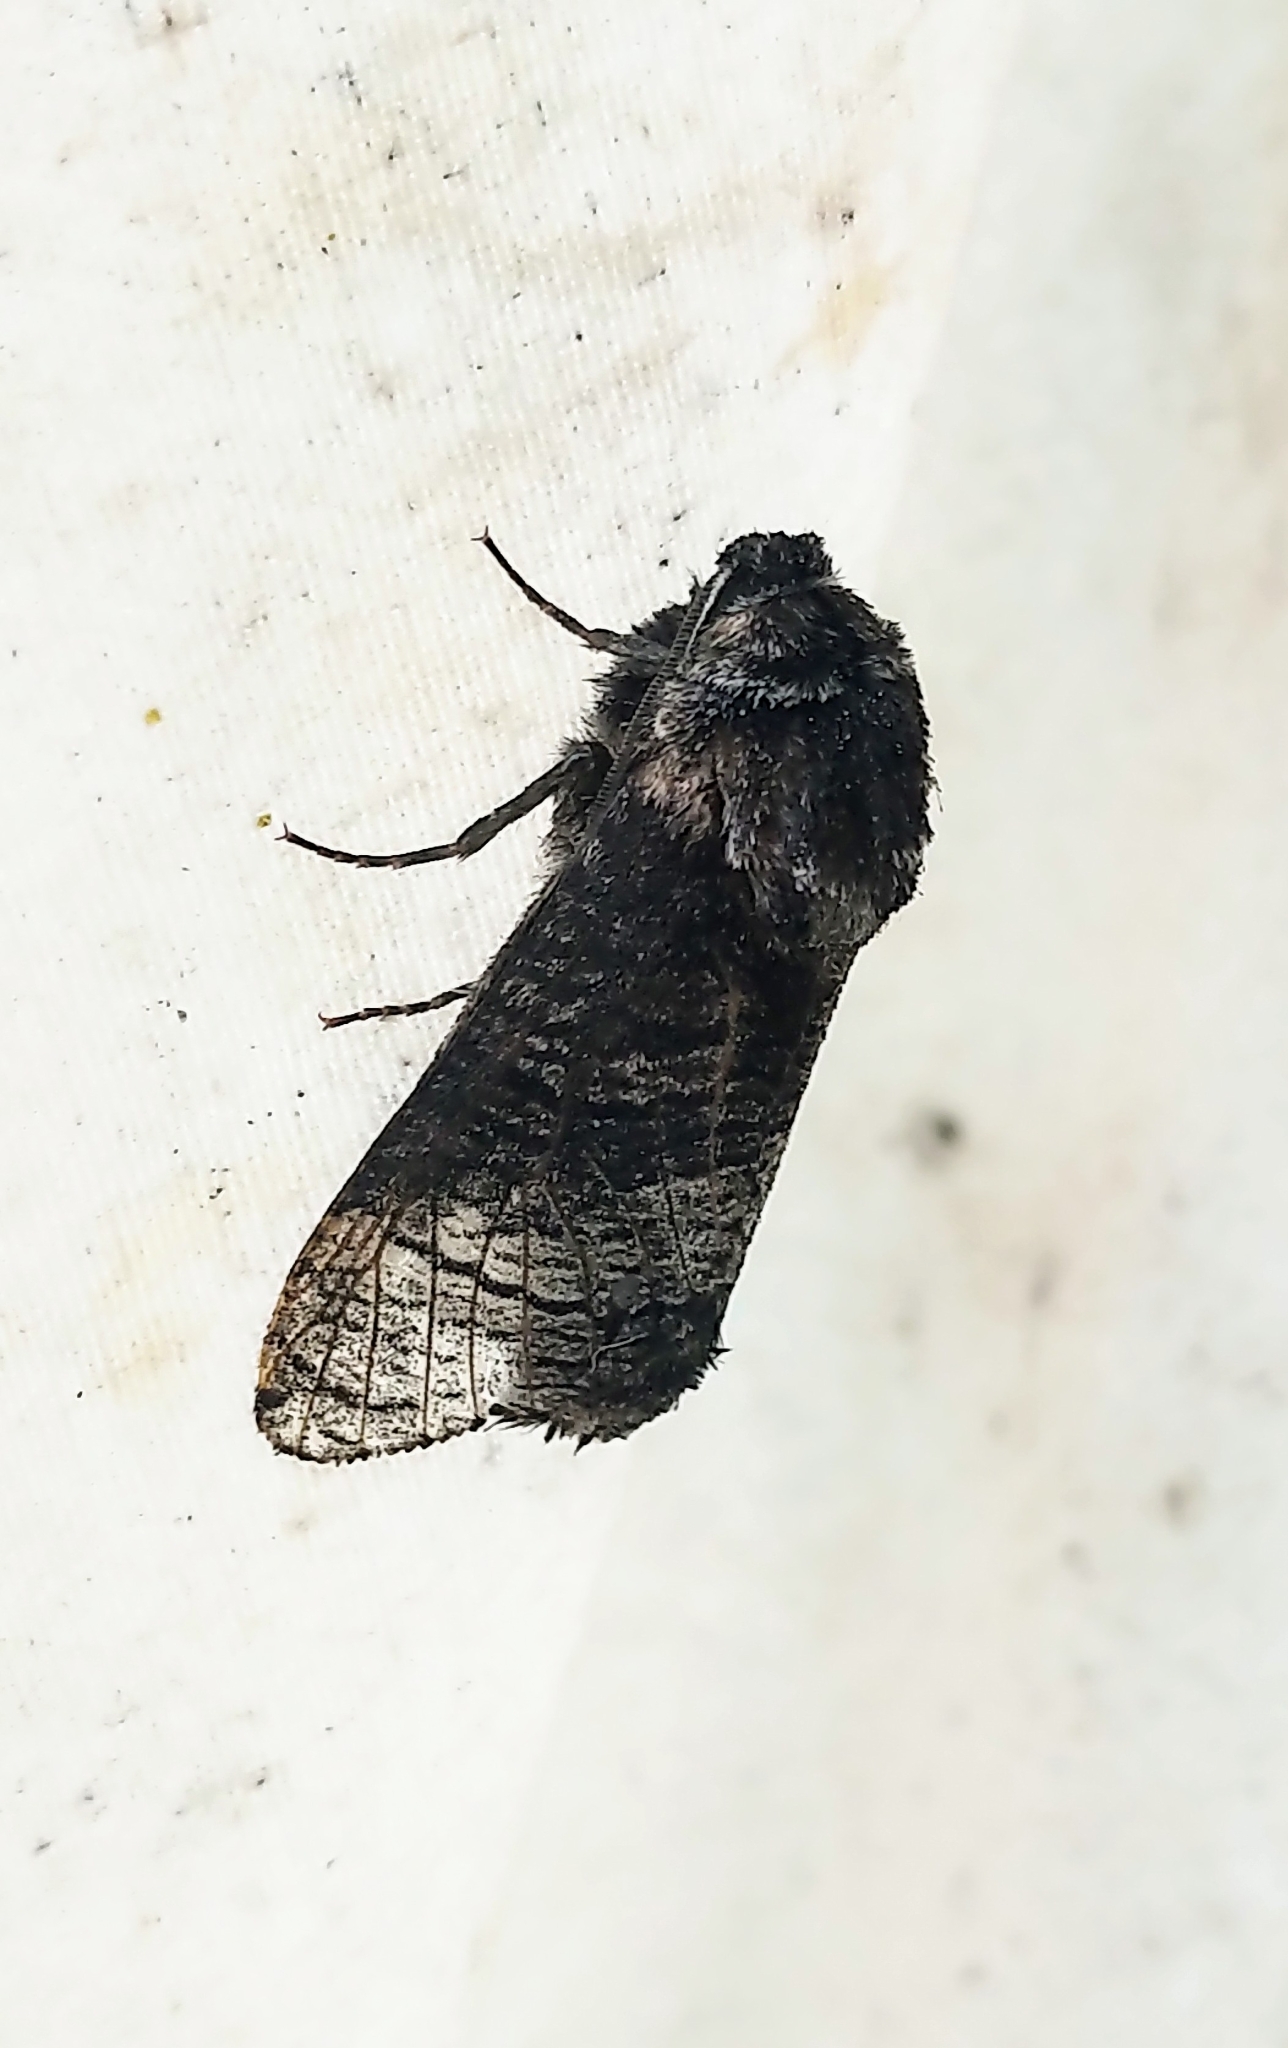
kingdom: Animalia
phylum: Arthropoda
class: Insecta
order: Lepidoptera
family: Cossidae
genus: Acossus
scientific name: Acossus centerensis
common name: Poplar carpenterworm moth
